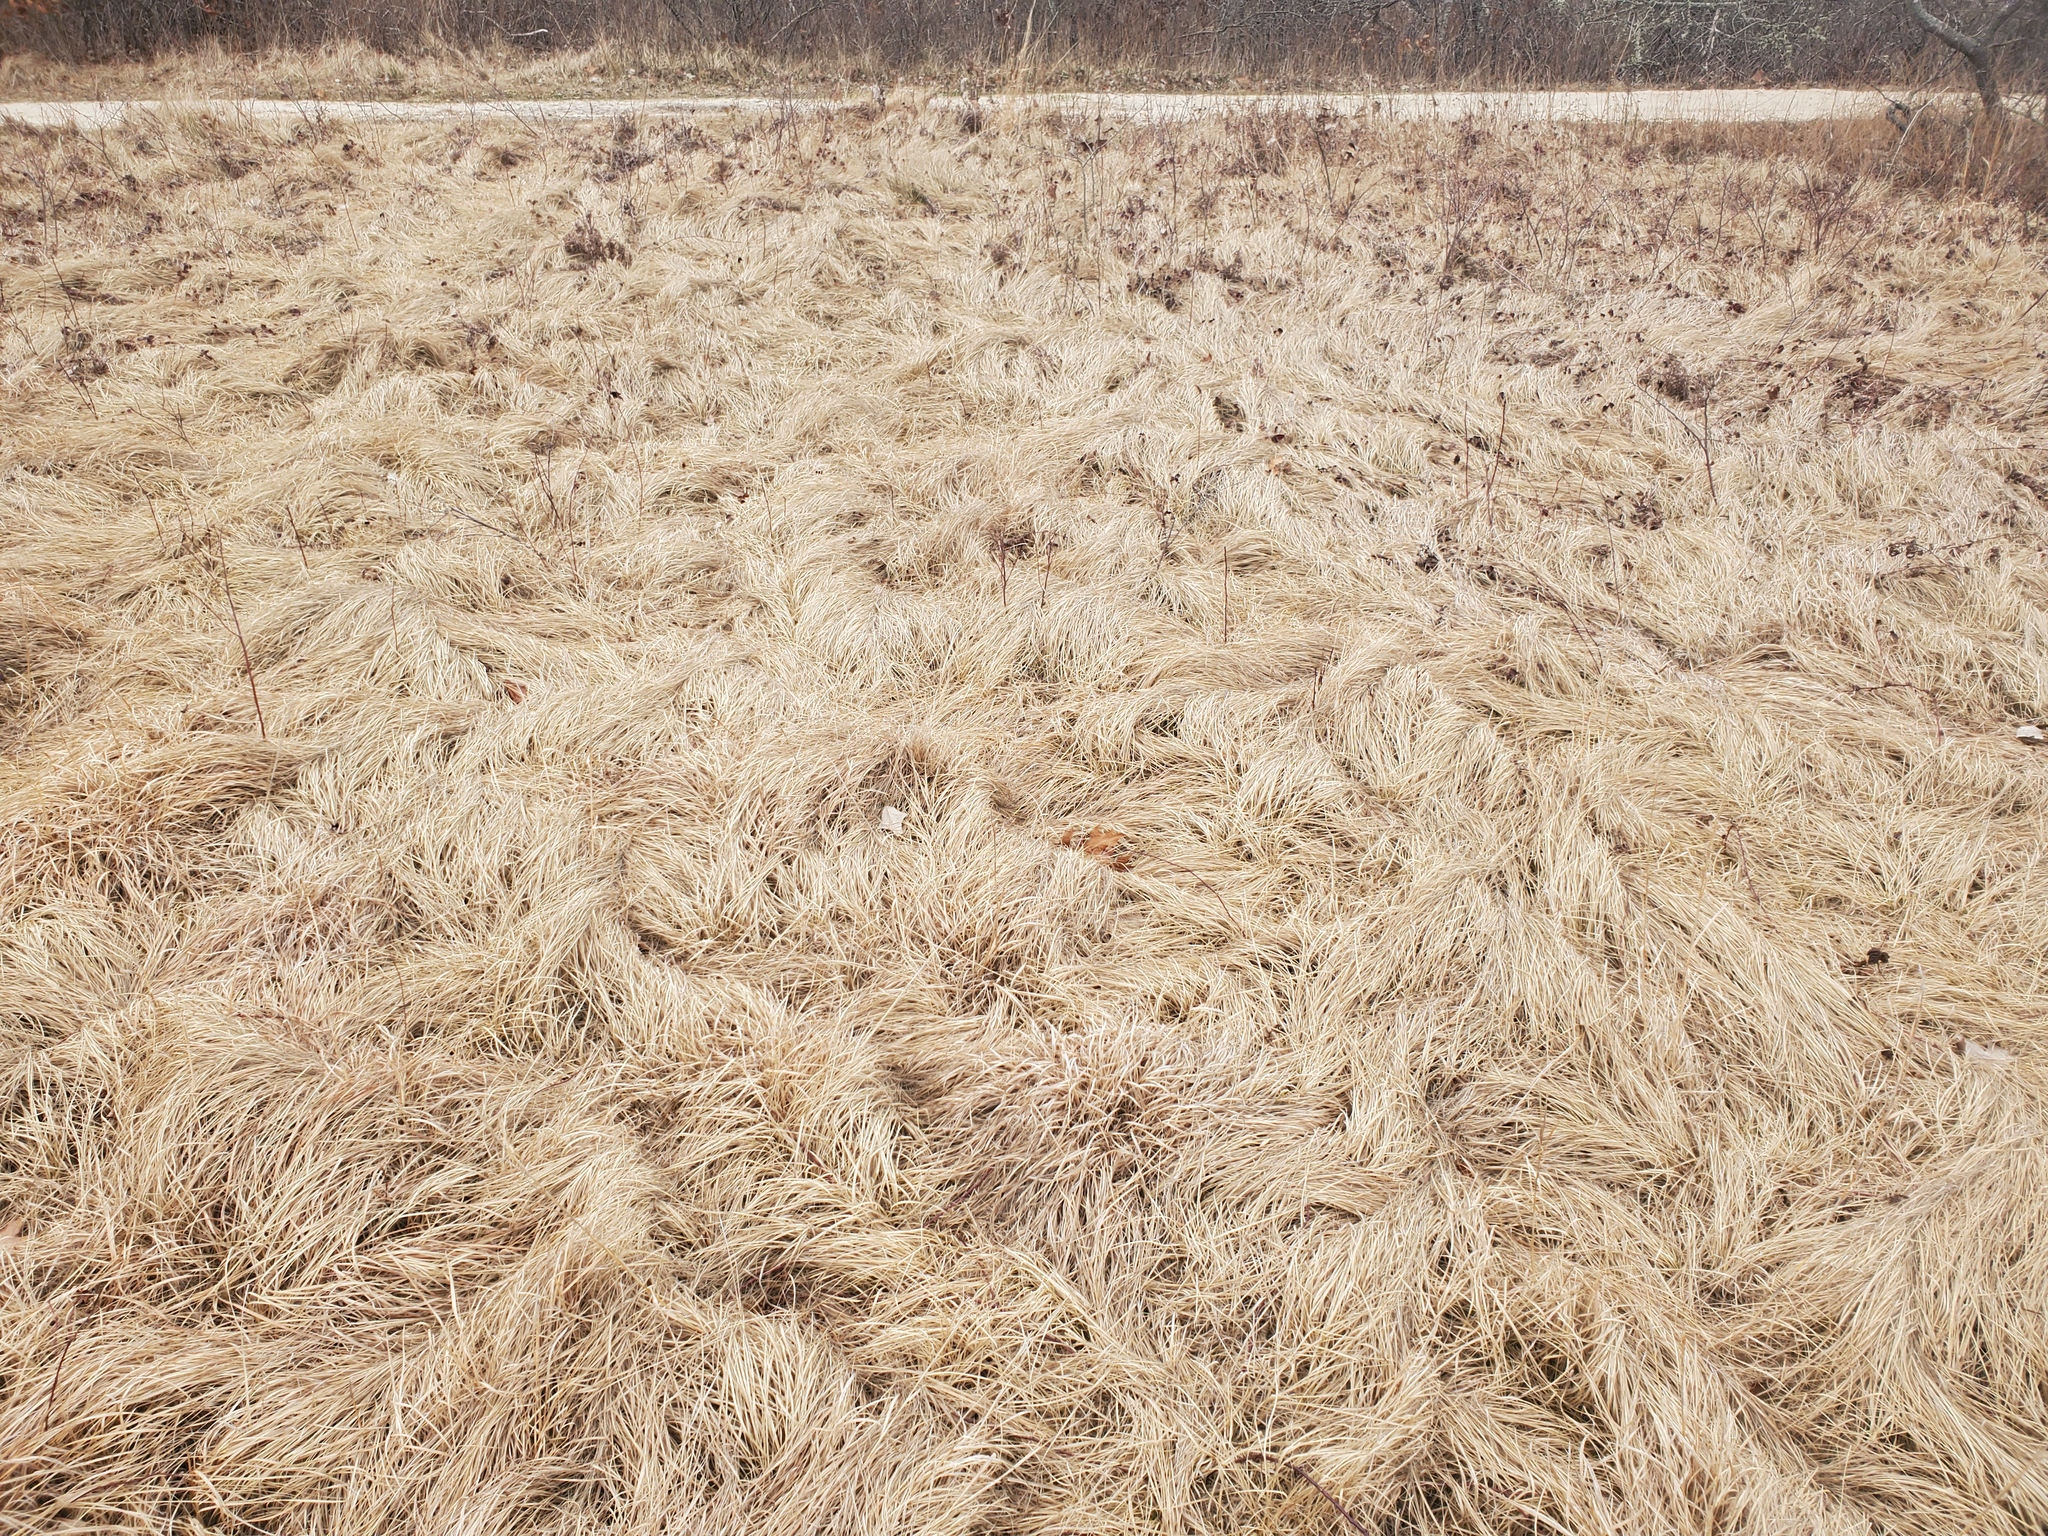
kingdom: Plantae
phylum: Tracheophyta
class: Liliopsida
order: Poales
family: Cyperaceae
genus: Carex
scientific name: Carex pensylvanica
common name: Common oak sedge
